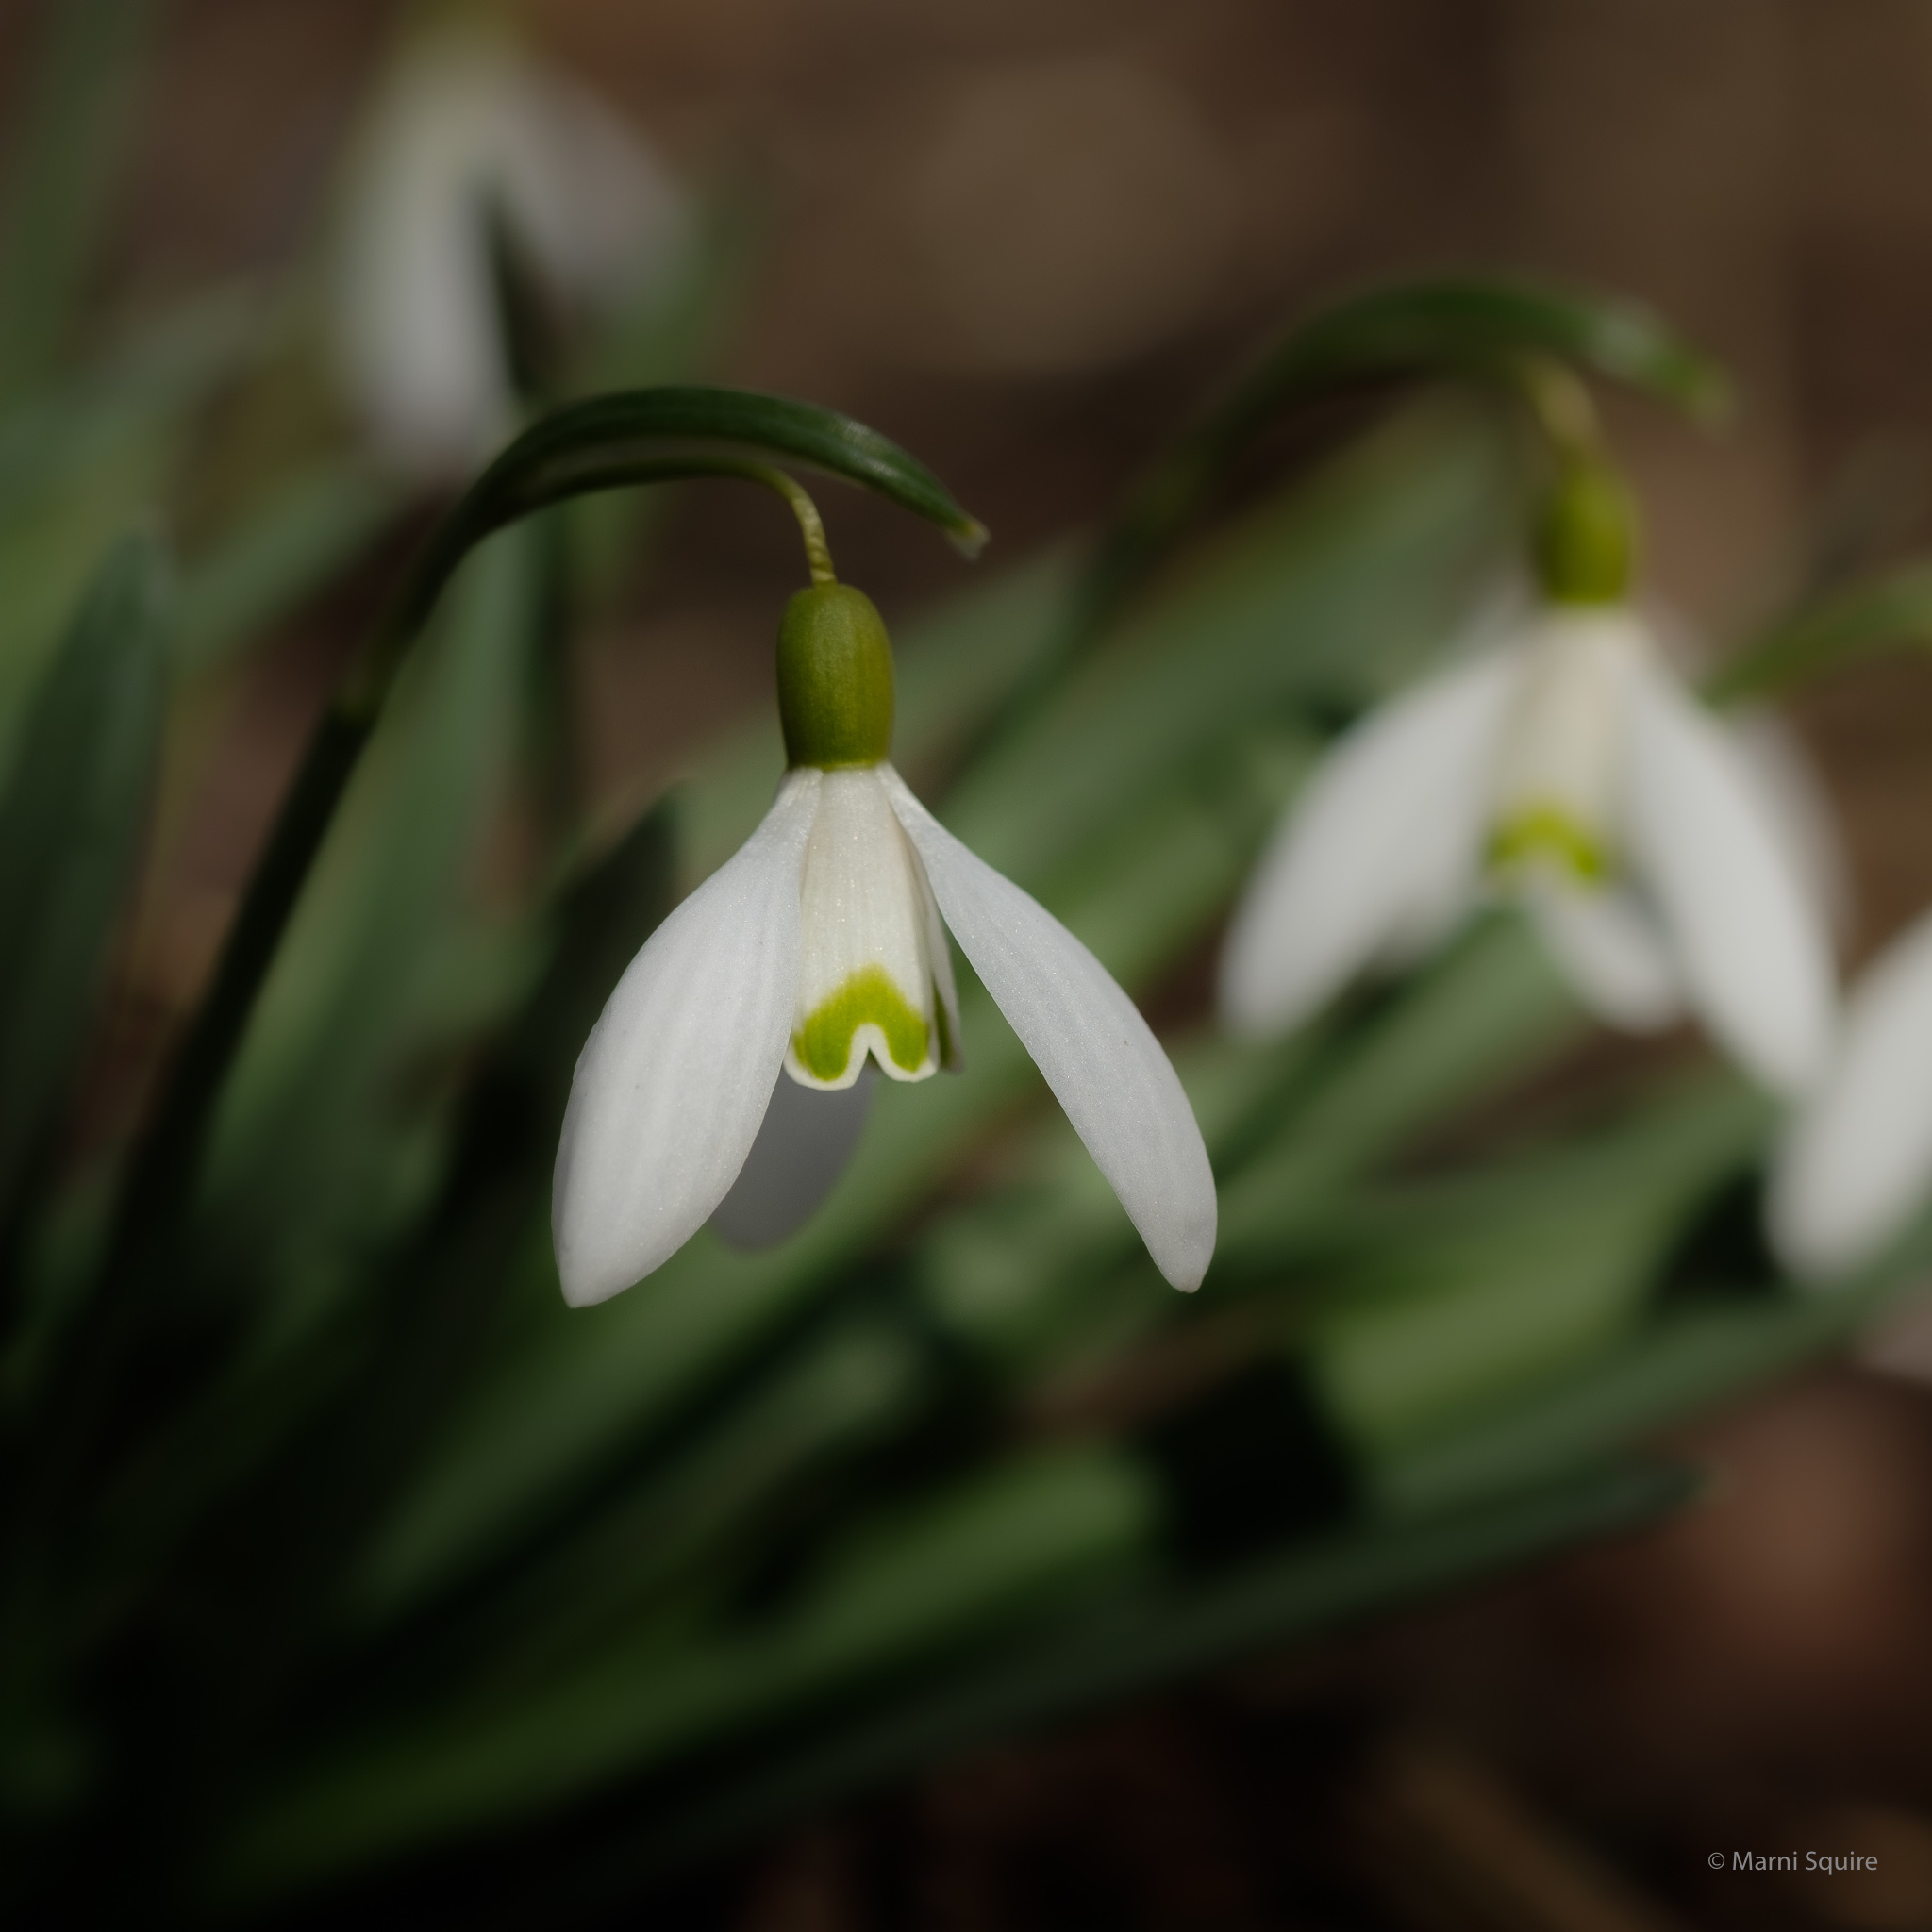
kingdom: Plantae
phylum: Tracheophyta
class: Liliopsida
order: Asparagales
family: Amaryllidaceae
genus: Galanthus
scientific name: Galanthus nivalis
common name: Snowdrop
